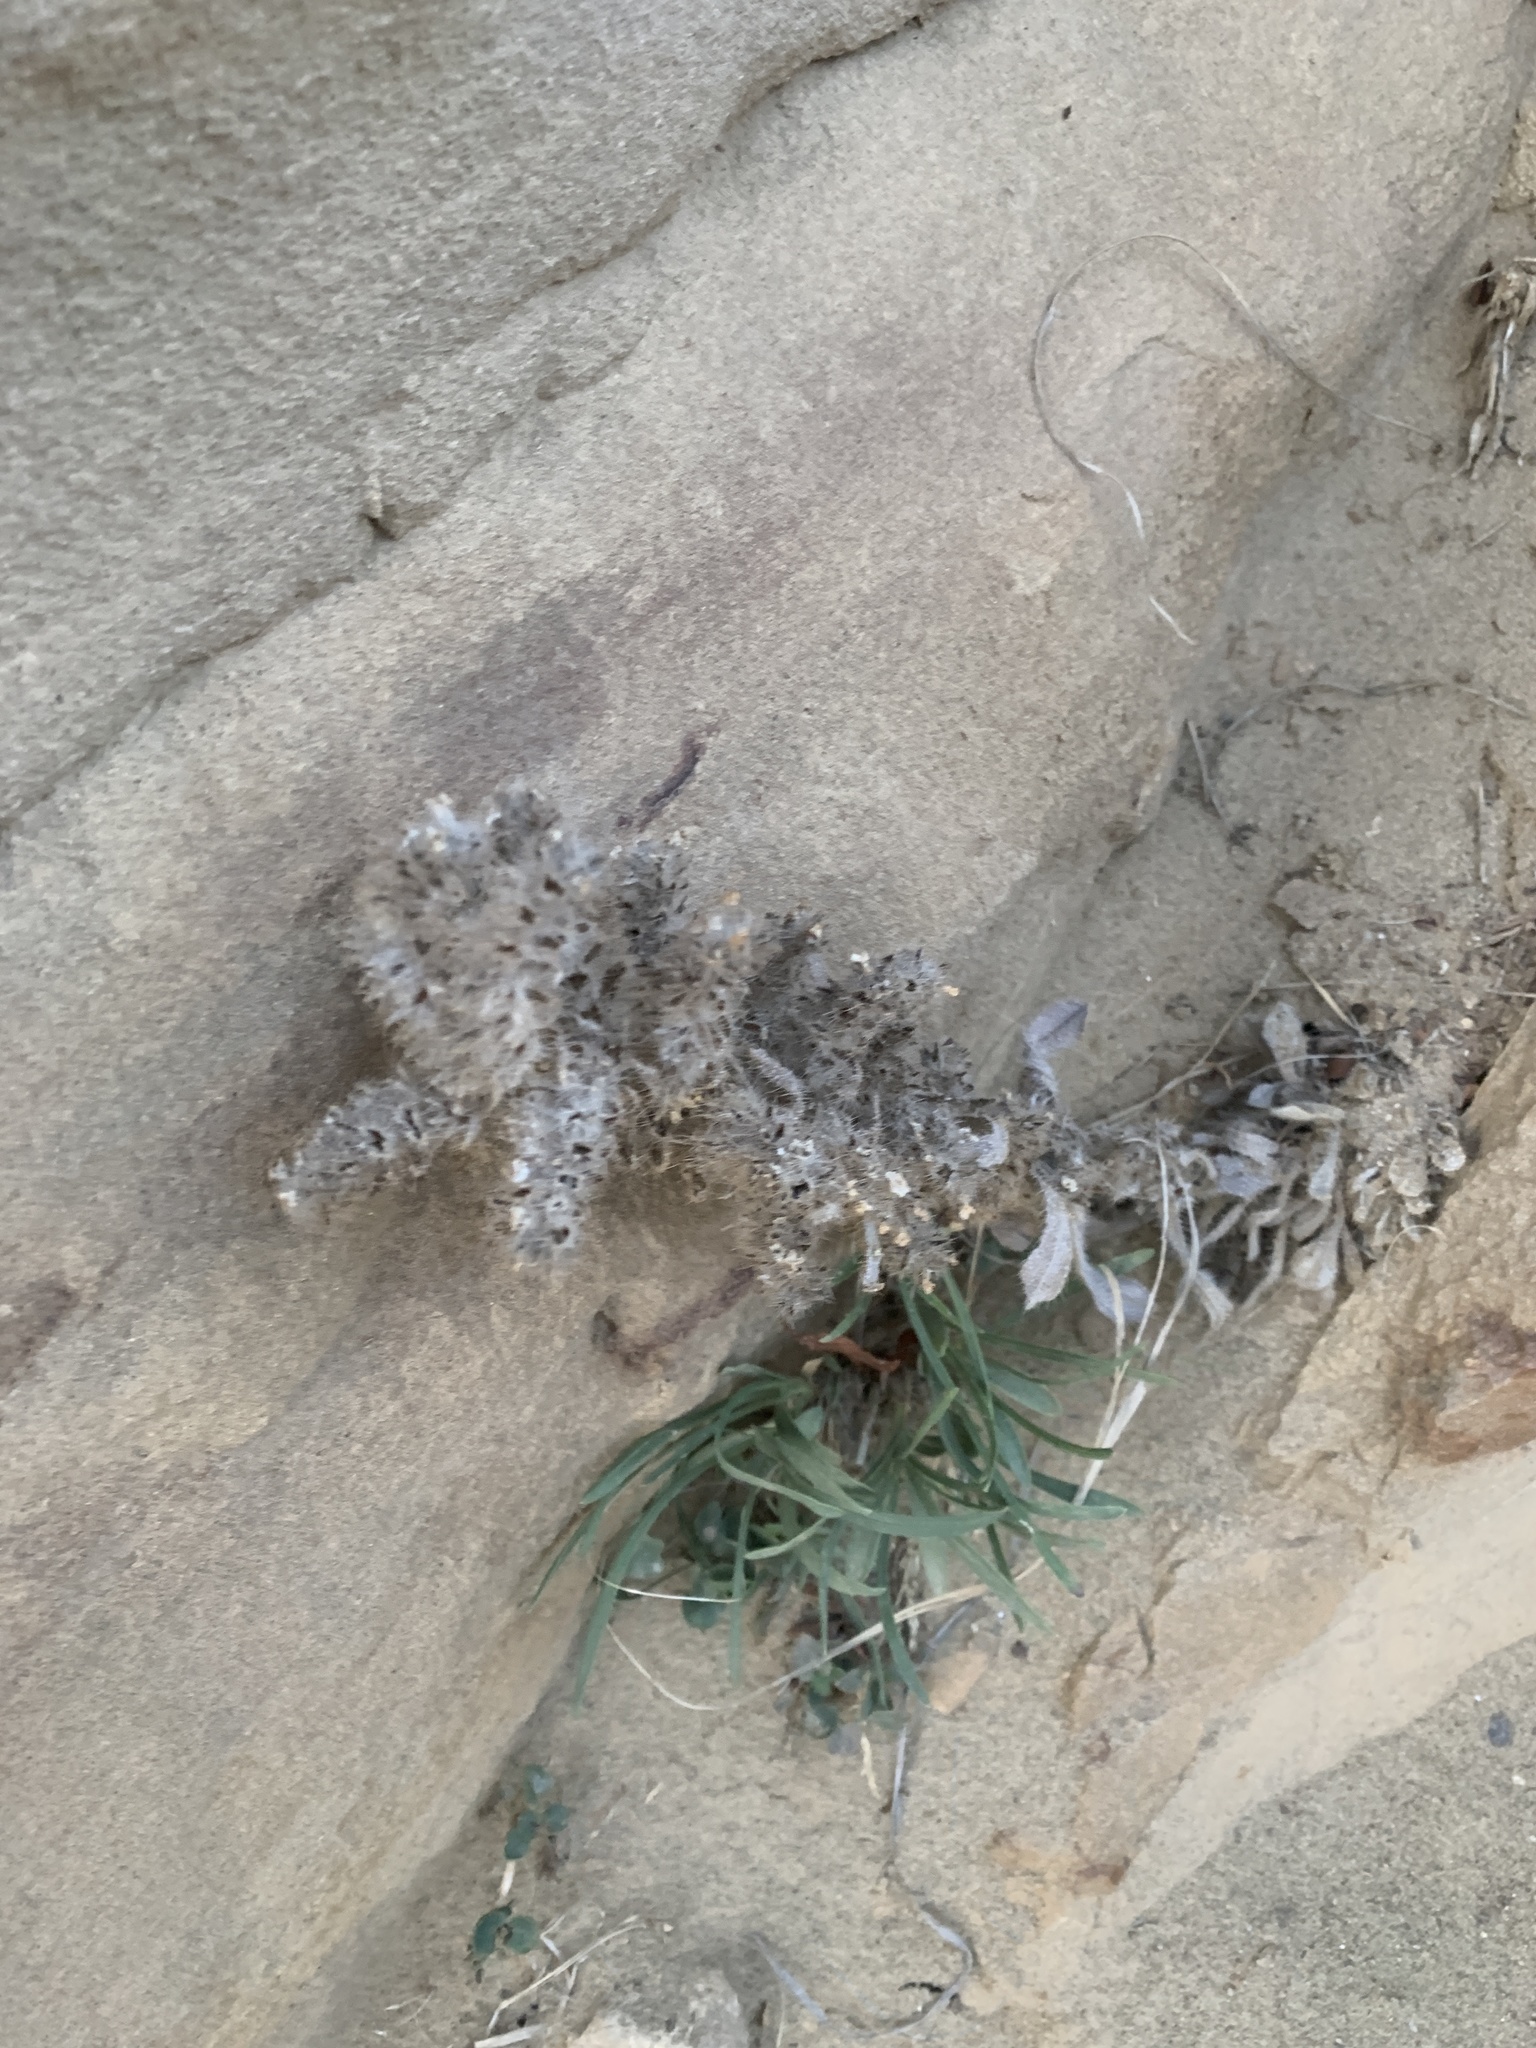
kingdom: Plantae
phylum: Tracheophyta
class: Magnoliopsida
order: Boraginales
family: Boraginaceae
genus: Oreocarya
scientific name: Oreocarya glomerata
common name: Macoun's cryptantha
